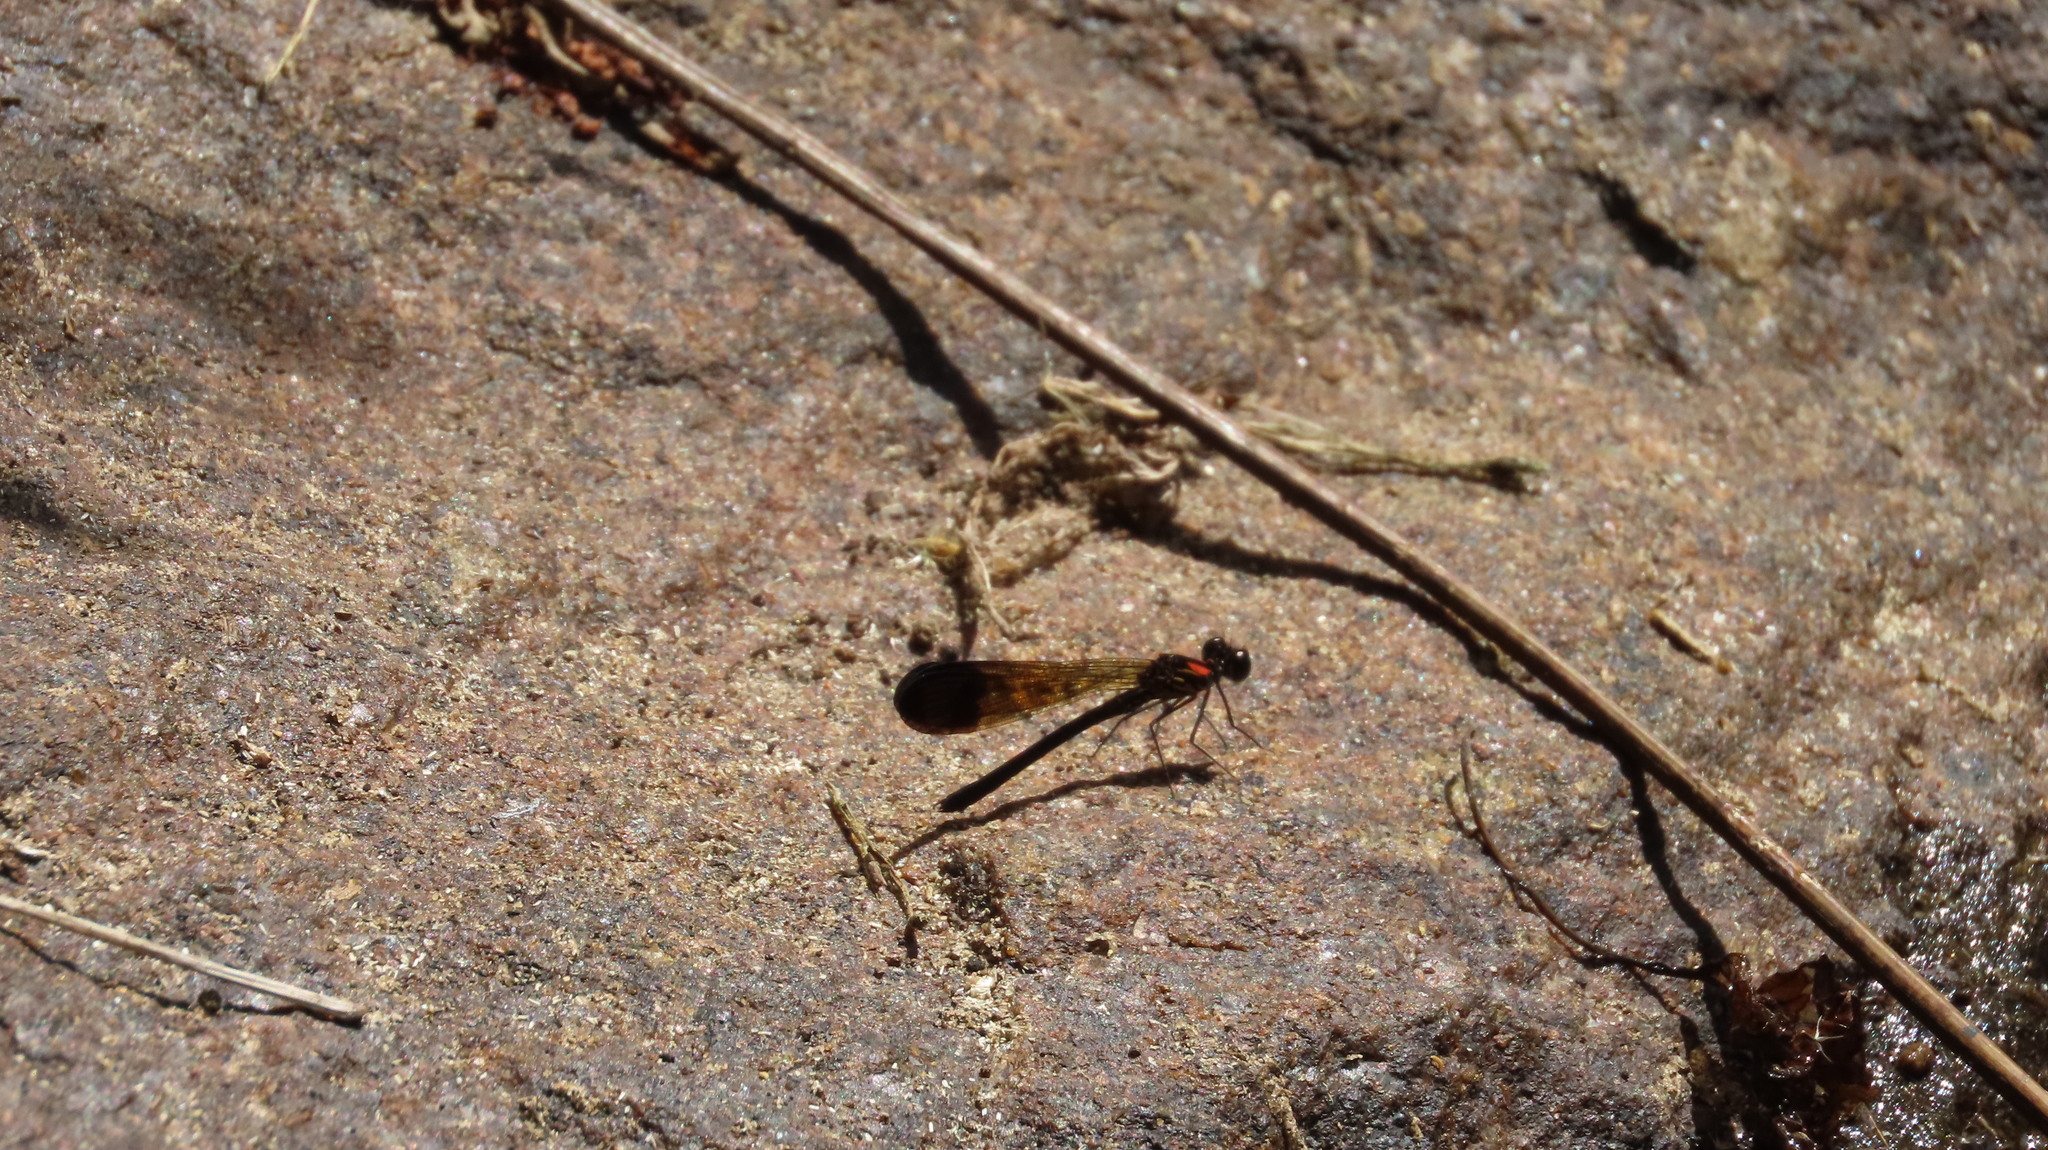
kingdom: Animalia
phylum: Arthropoda
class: Insecta
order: Odonata
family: Chlorocyphidae
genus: Heliocypha
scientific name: Heliocypha bisignata
